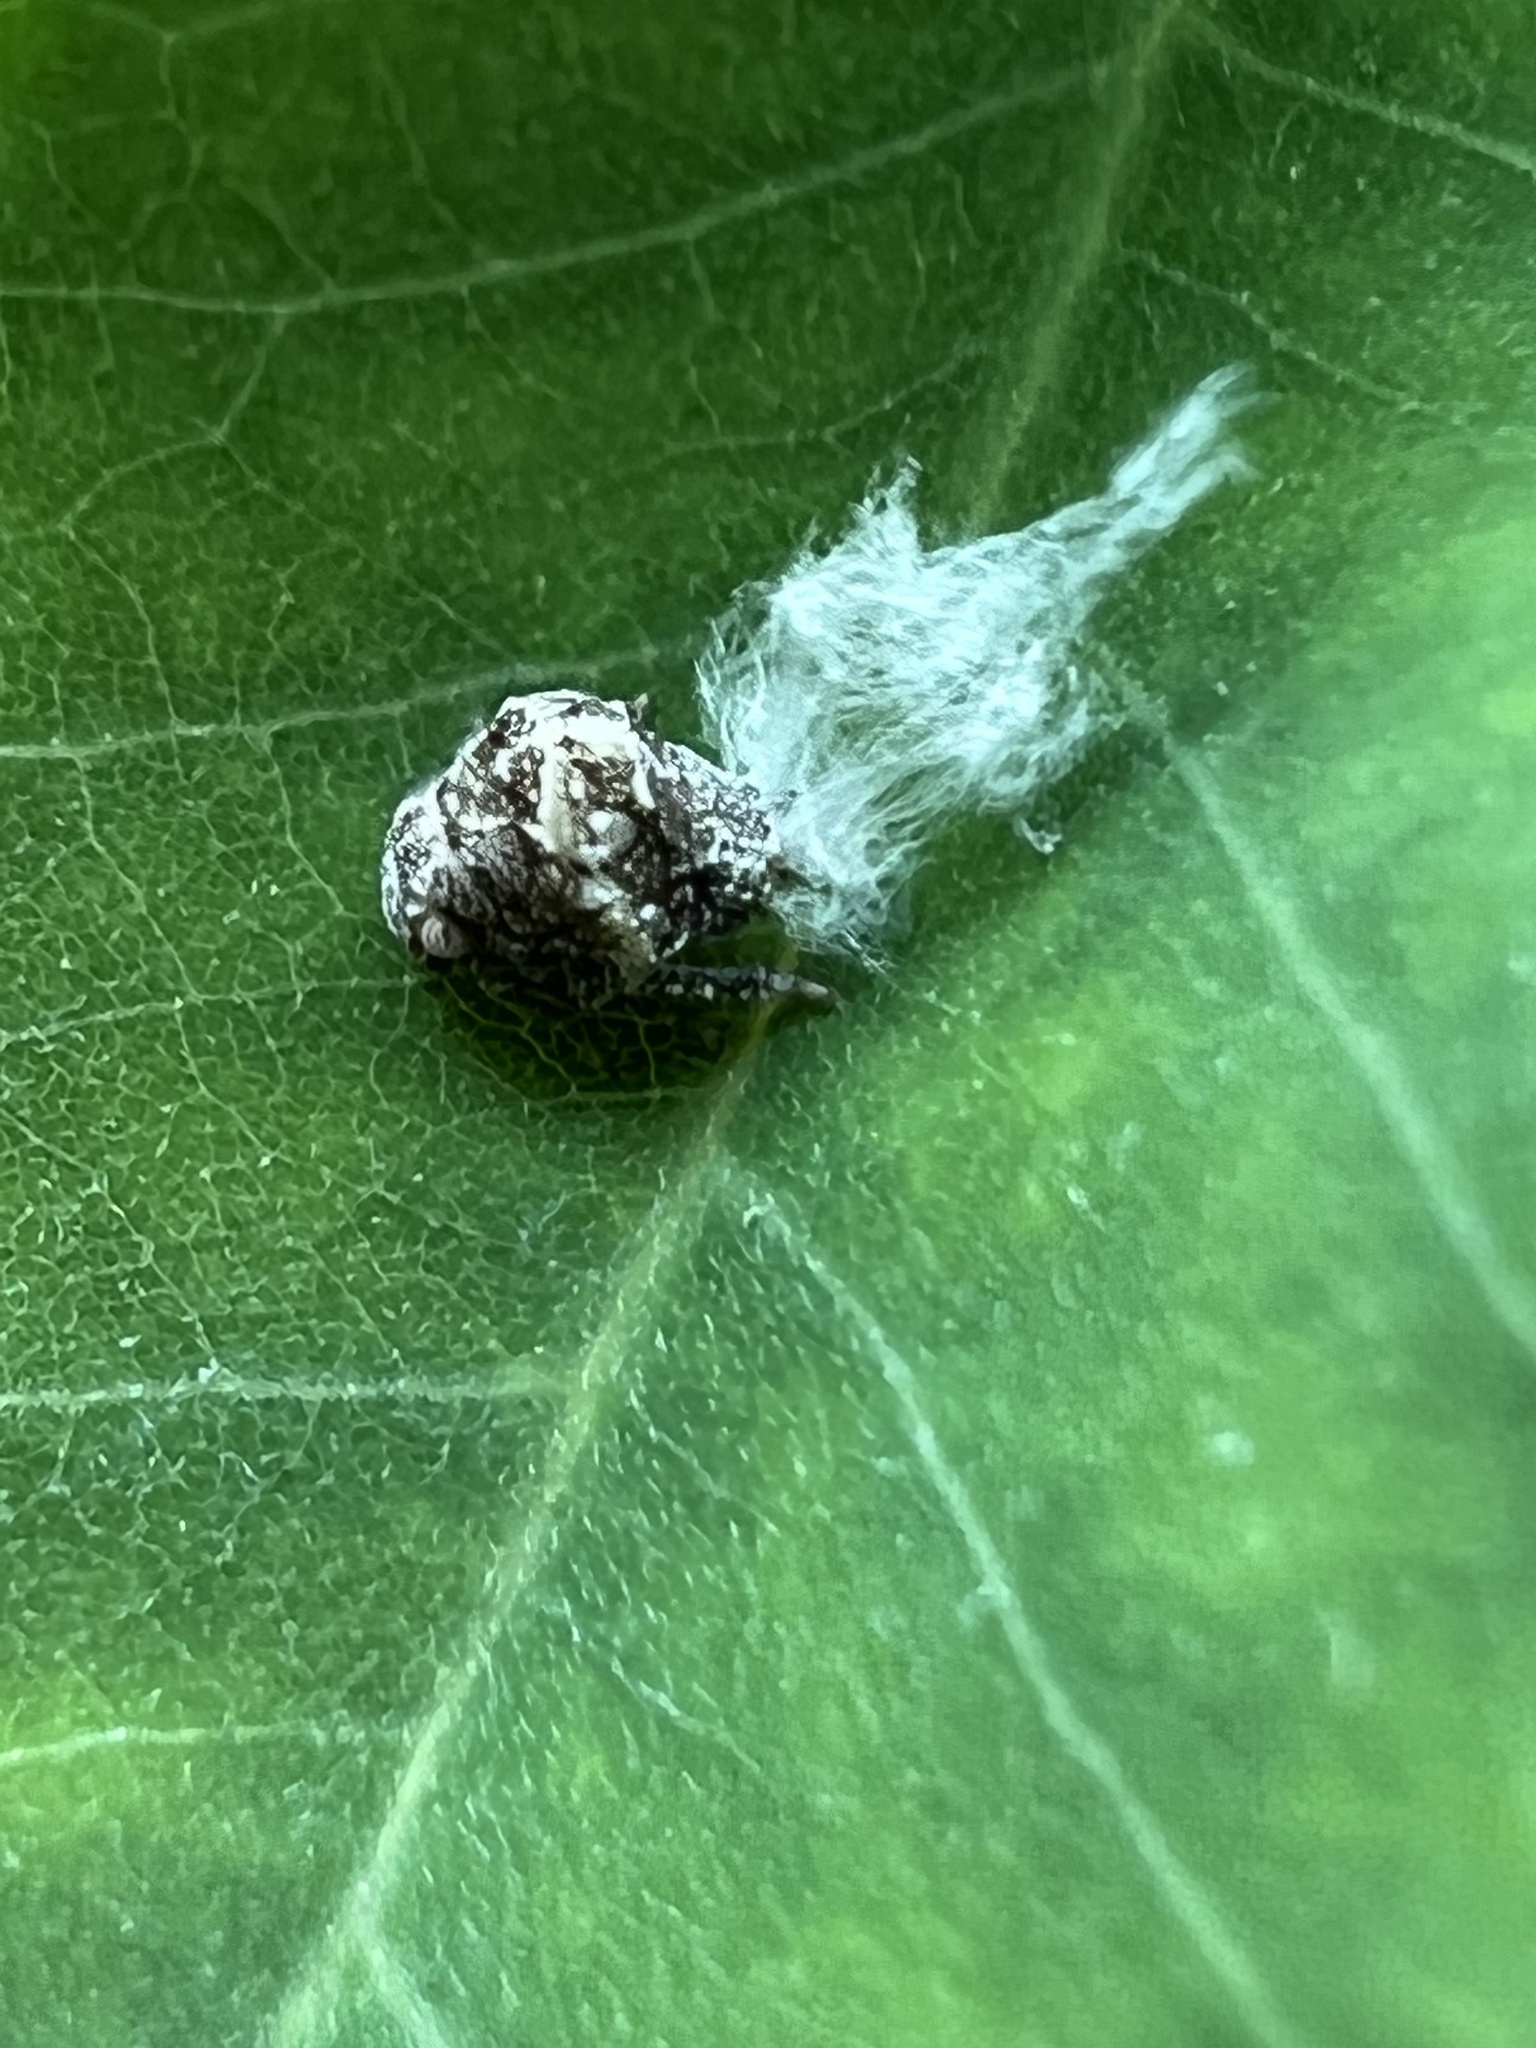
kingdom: Animalia
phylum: Arthropoda
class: Insecta
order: Hemiptera
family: Acanaloniidae
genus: Acanalonia
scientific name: Acanalonia bivittata
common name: Two-striped planthopper
